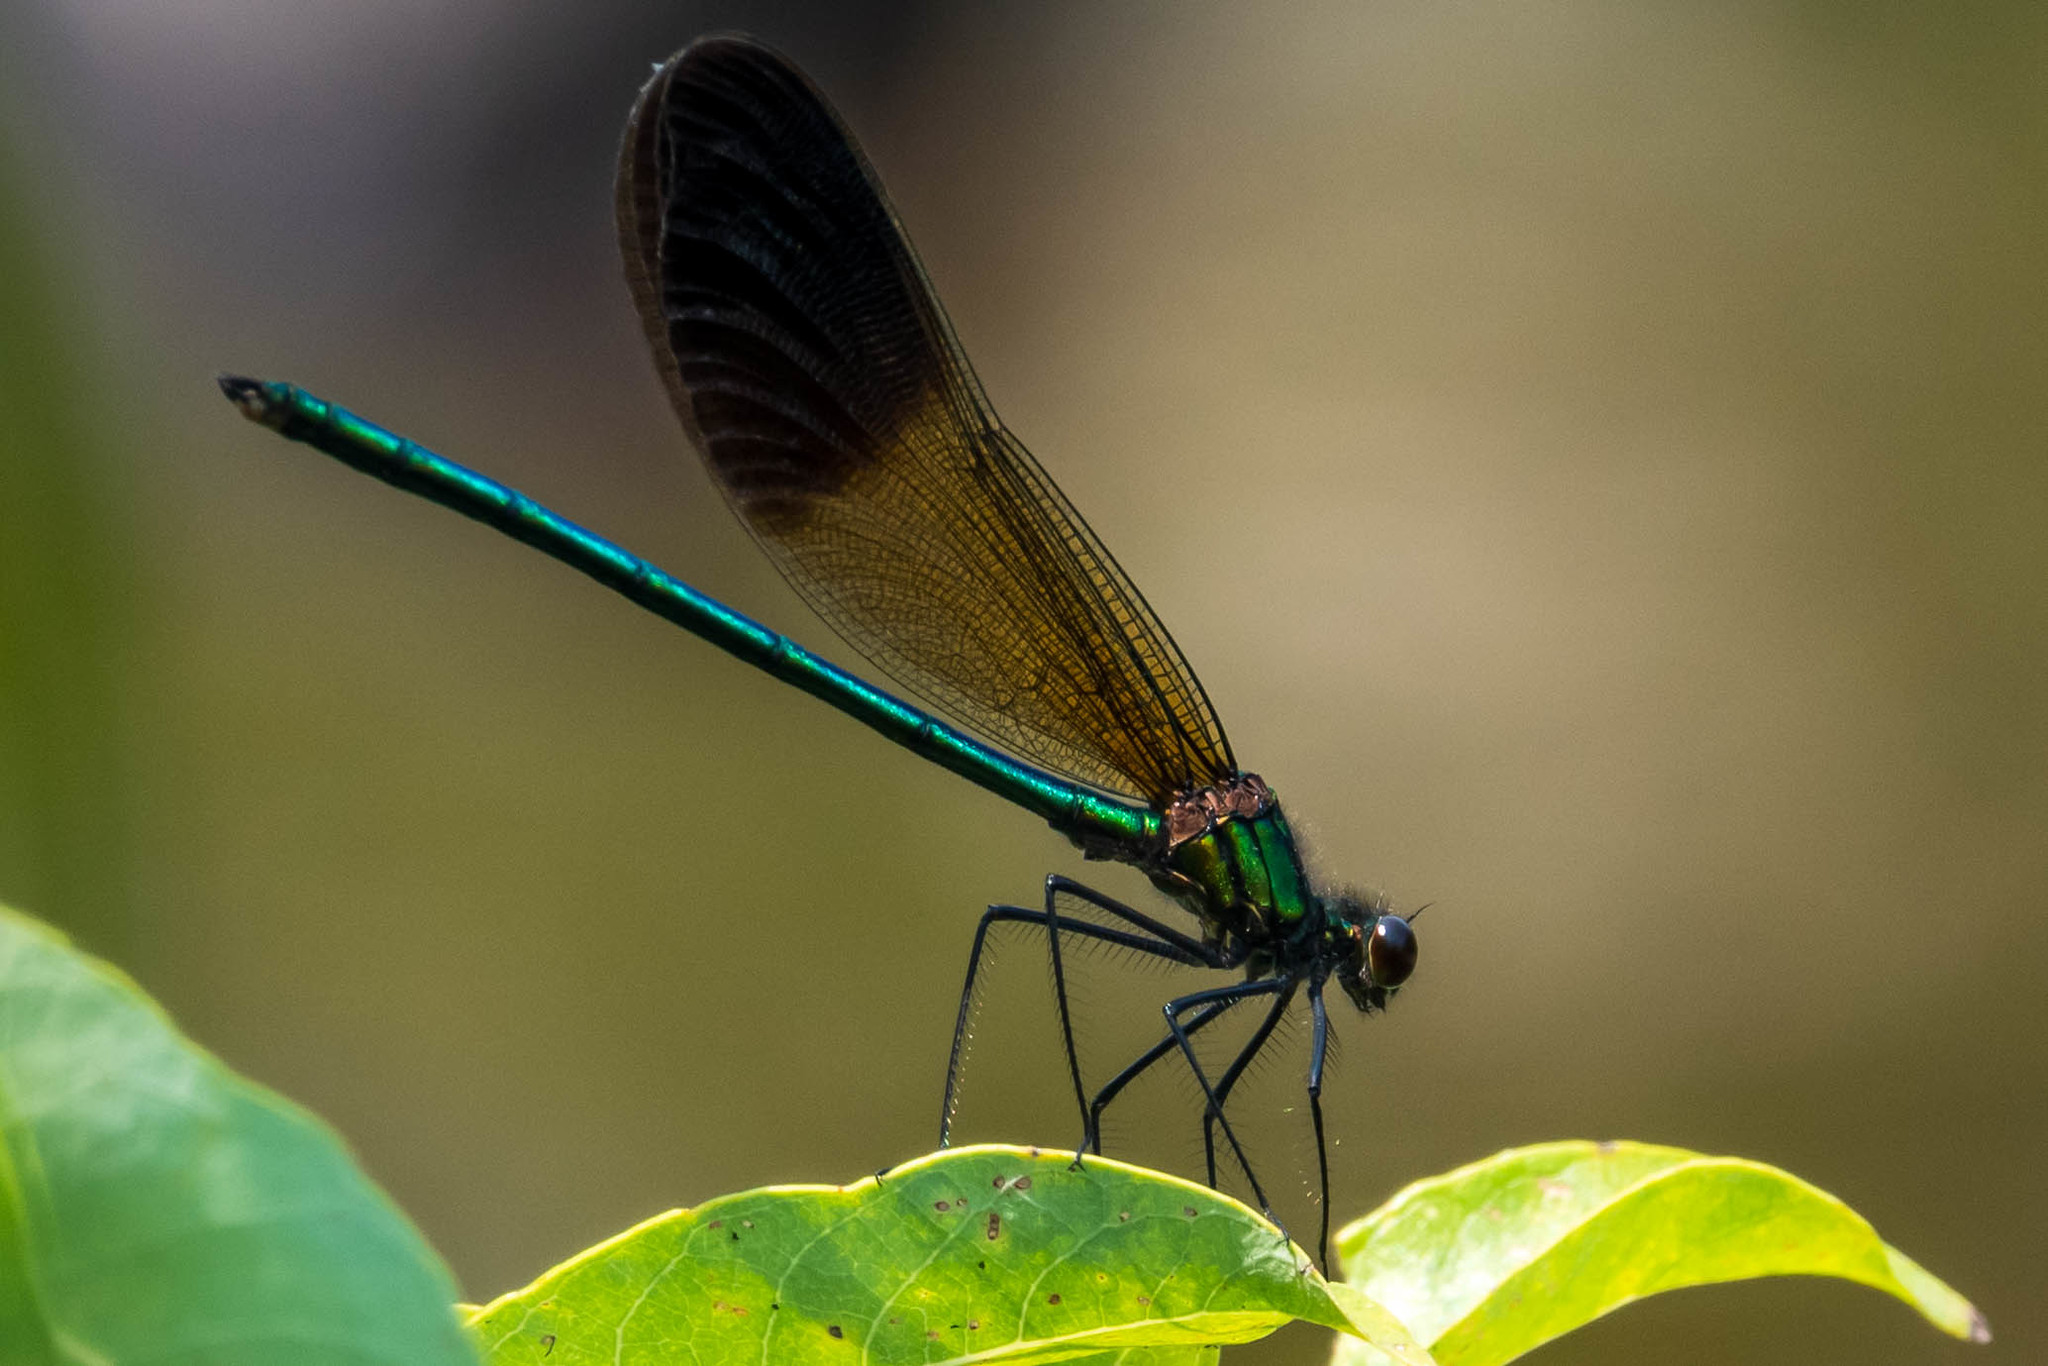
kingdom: Animalia
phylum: Arthropoda
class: Insecta
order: Odonata
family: Calopterygidae
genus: Calopteryx
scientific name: Calopteryx aequabilis
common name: River jewelwing
